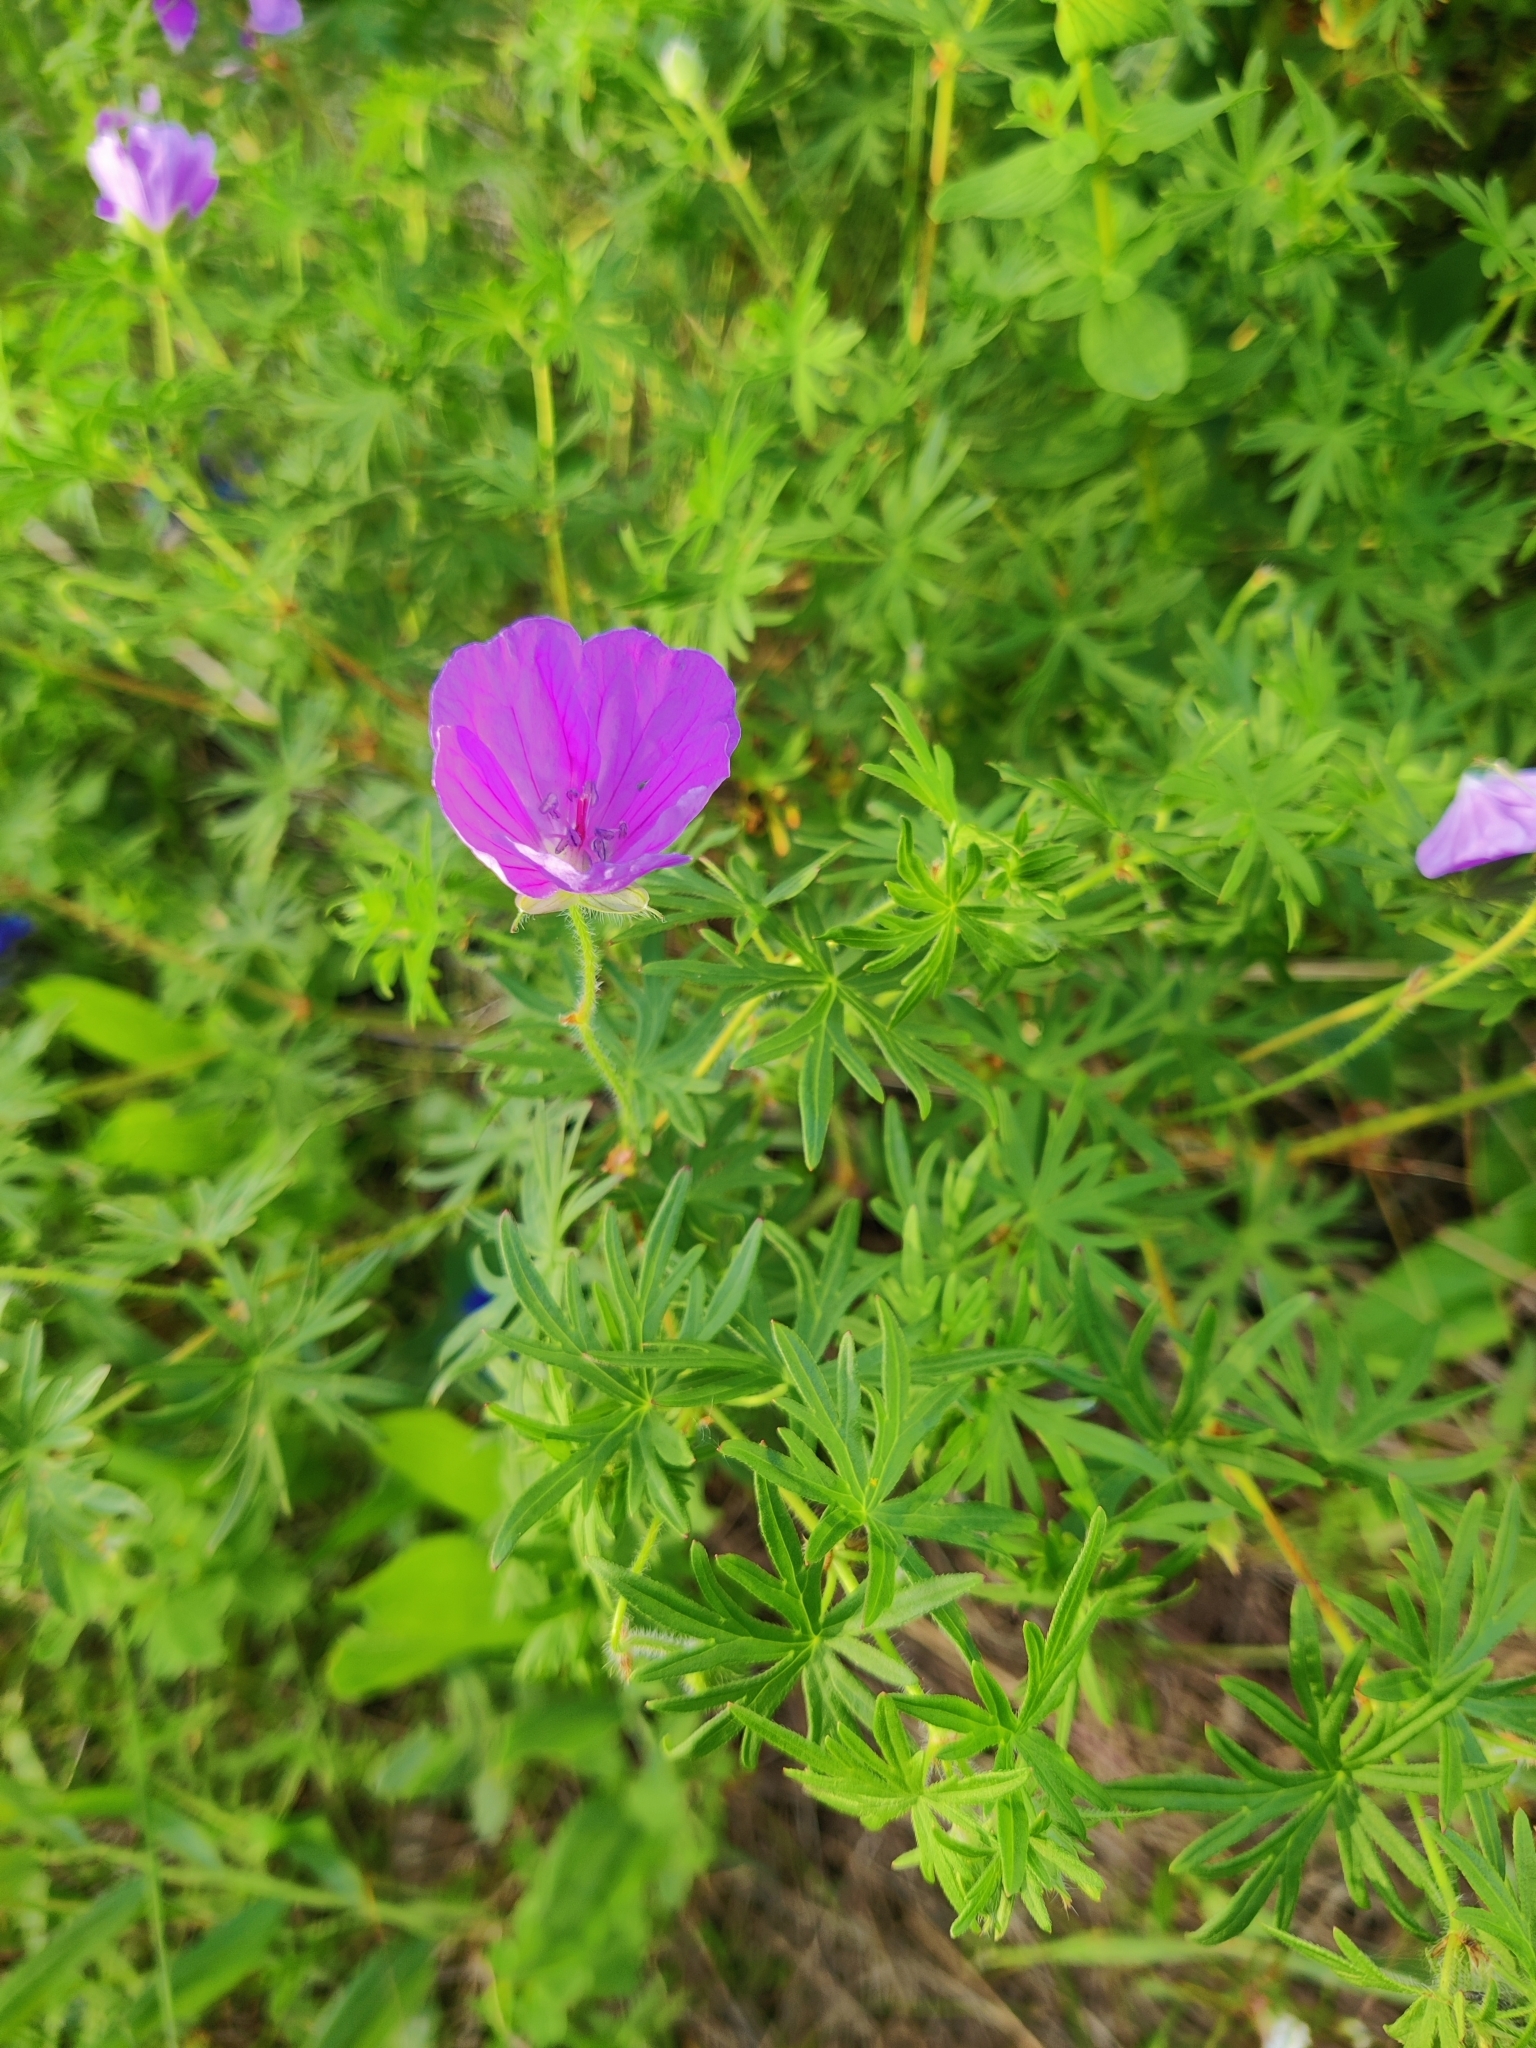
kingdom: Plantae
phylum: Tracheophyta
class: Magnoliopsida
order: Geraniales
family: Geraniaceae
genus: Geranium
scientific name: Geranium sanguineum
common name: Bloody crane's-bill
